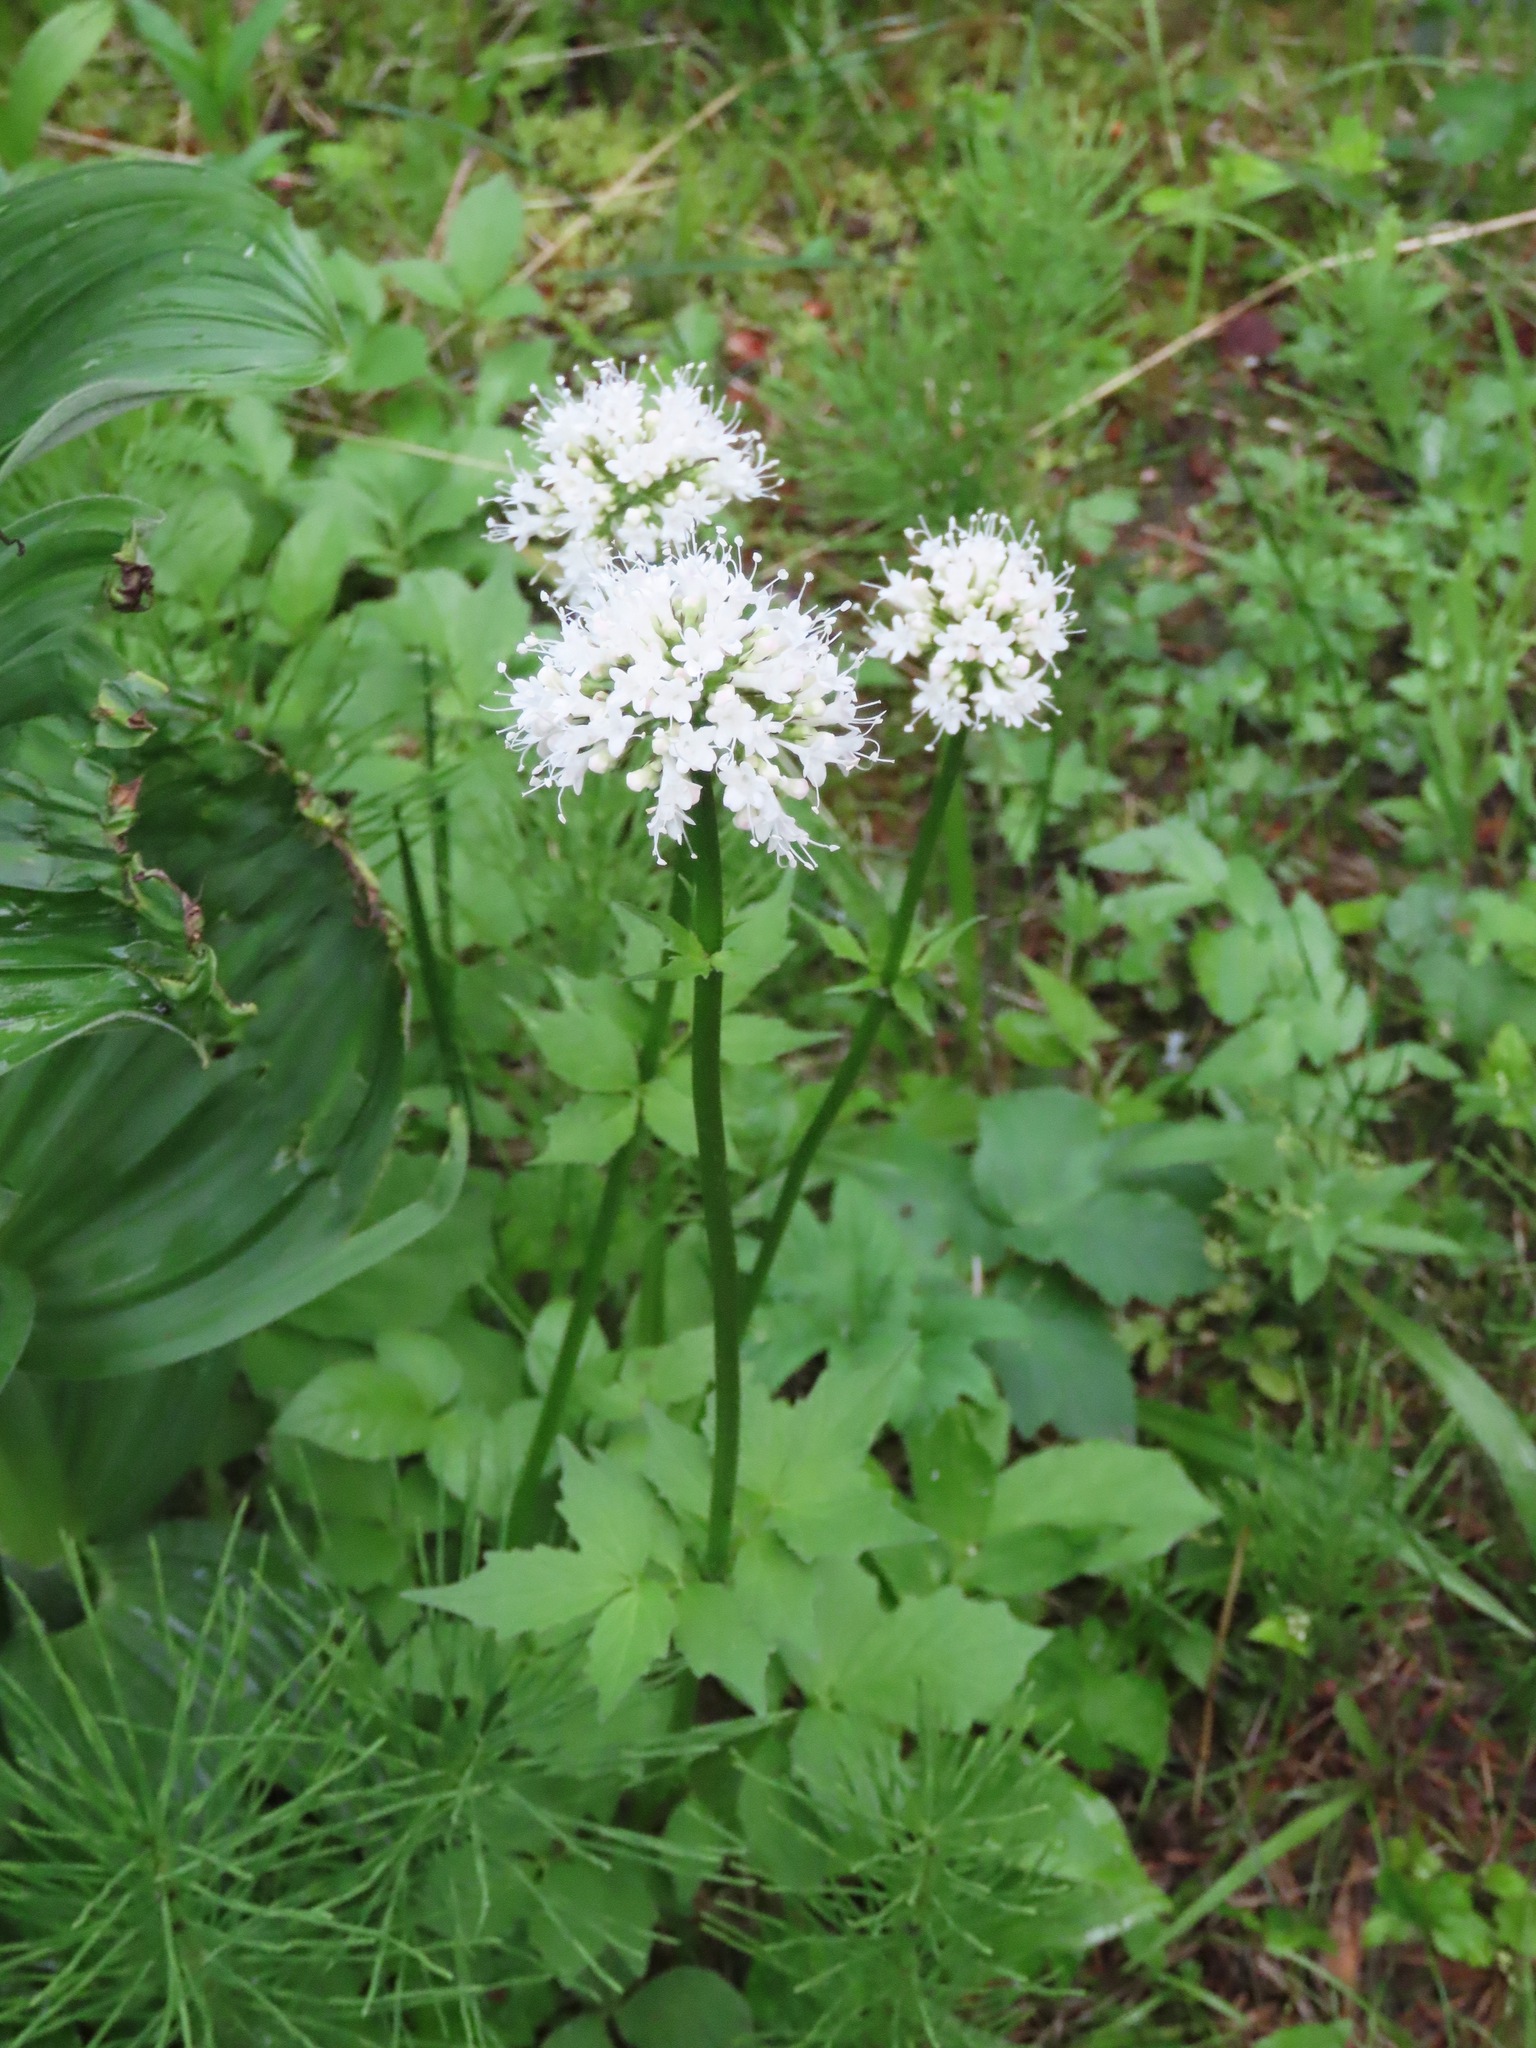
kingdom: Plantae
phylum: Tracheophyta
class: Magnoliopsida
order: Dipsacales
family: Caprifoliaceae
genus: Valeriana
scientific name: Valeriana sitchensis
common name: Pacific valerian
